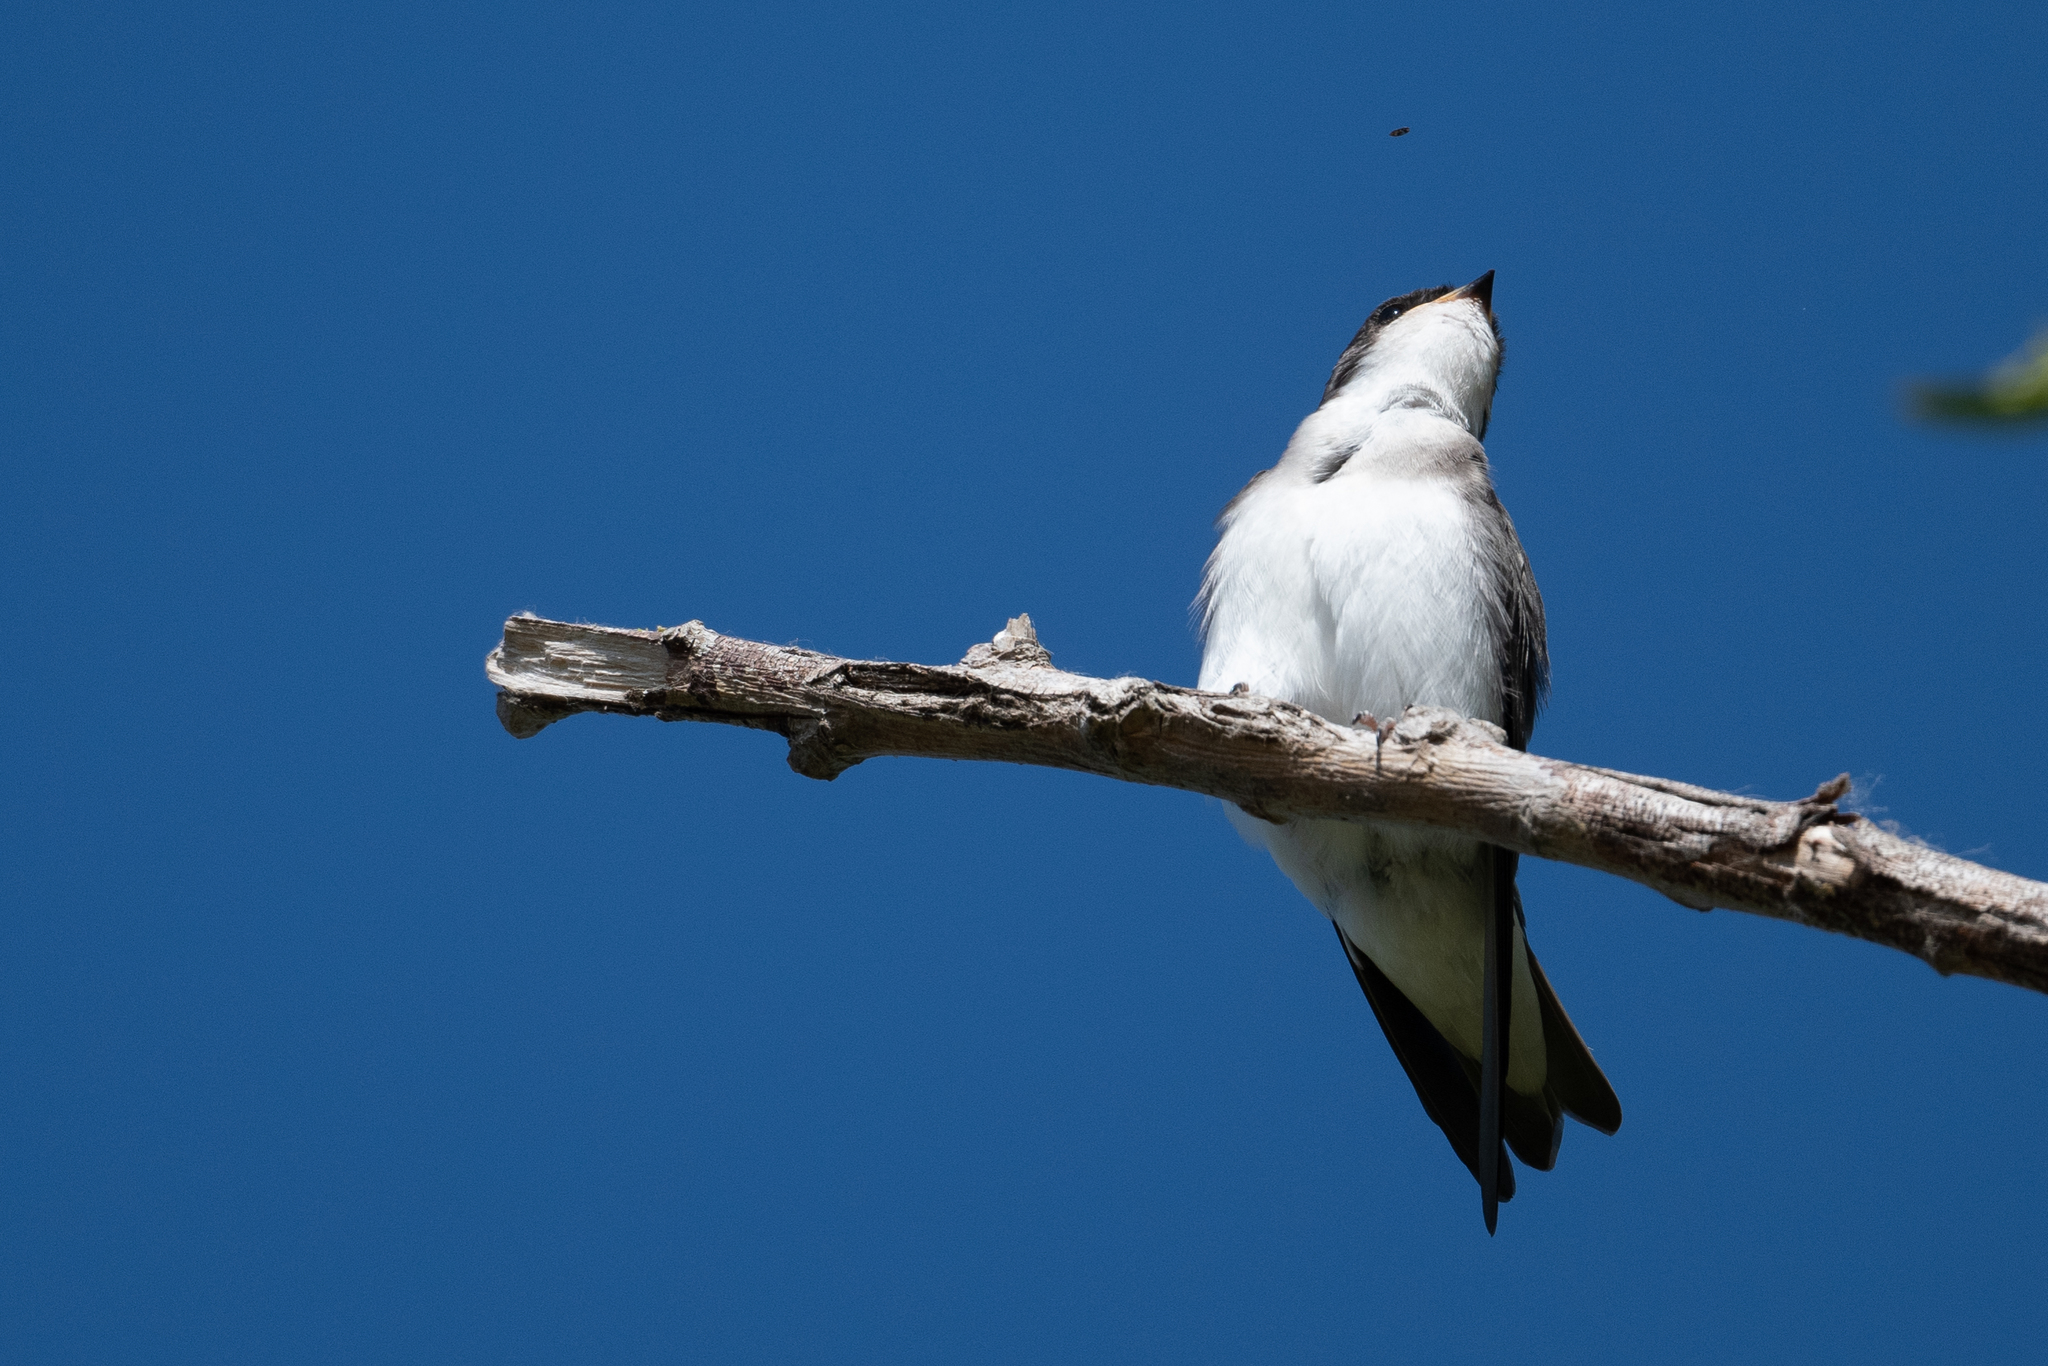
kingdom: Animalia
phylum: Chordata
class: Aves
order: Passeriformes
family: Hirundinidae
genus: Tachycineta
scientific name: Tachycineta bicolor
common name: Tree swallow
